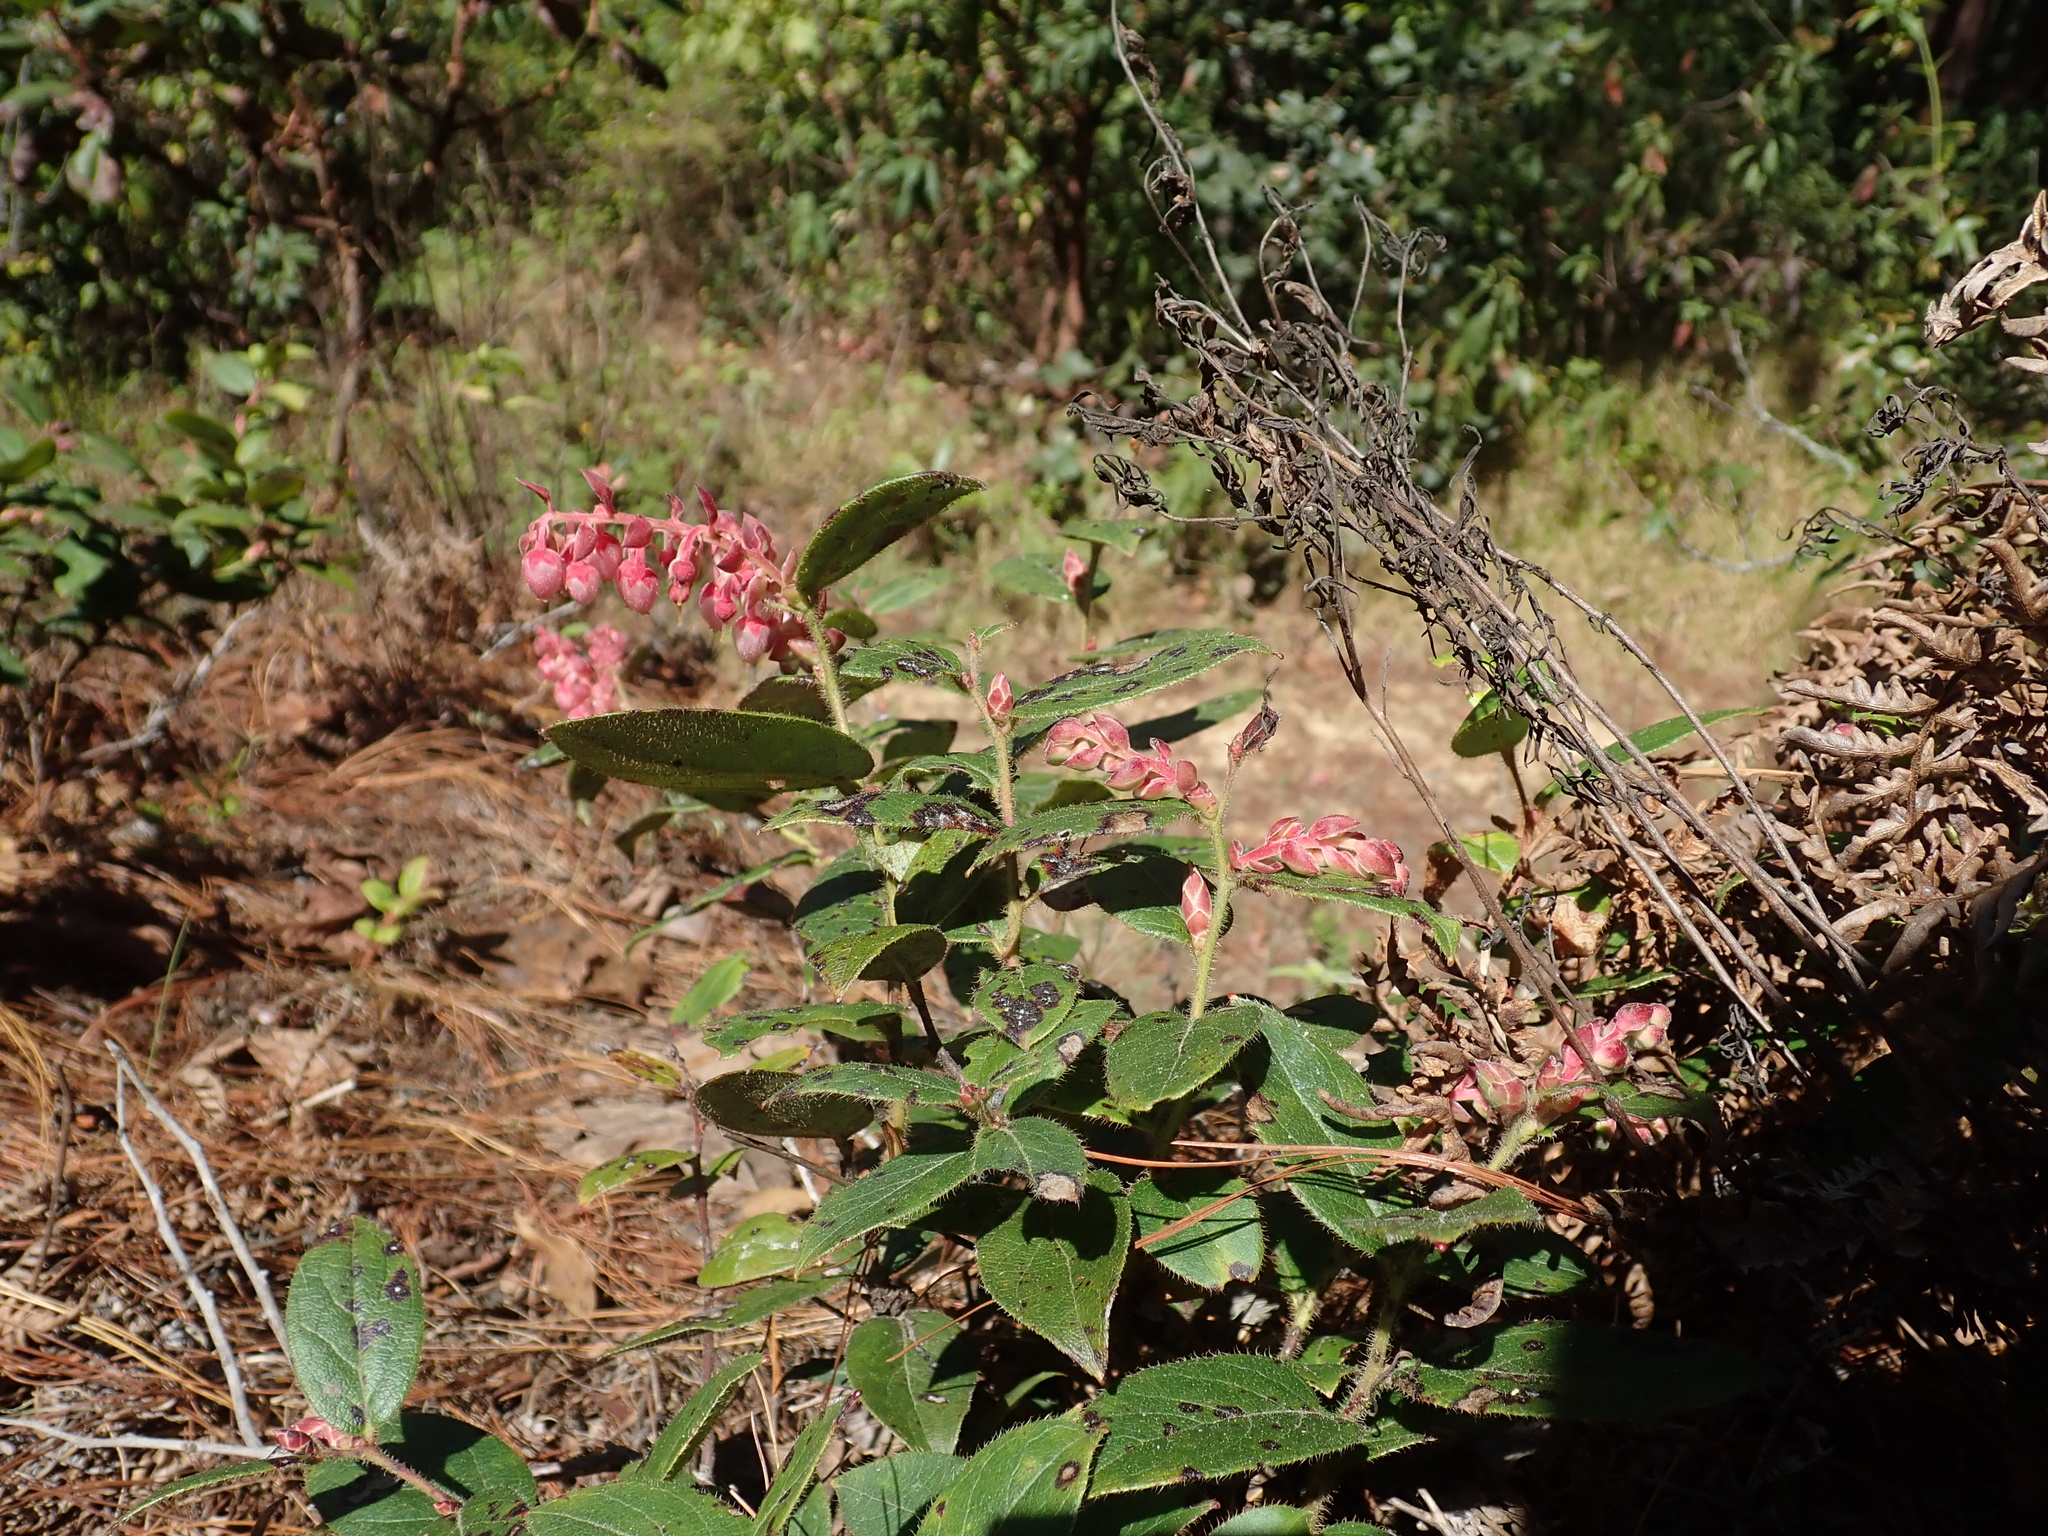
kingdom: Plantae
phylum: Tracheophyta
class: Magnoliopsida
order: Ericales
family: Ericaceae
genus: Gaultheria
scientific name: Gaultheria erecta
